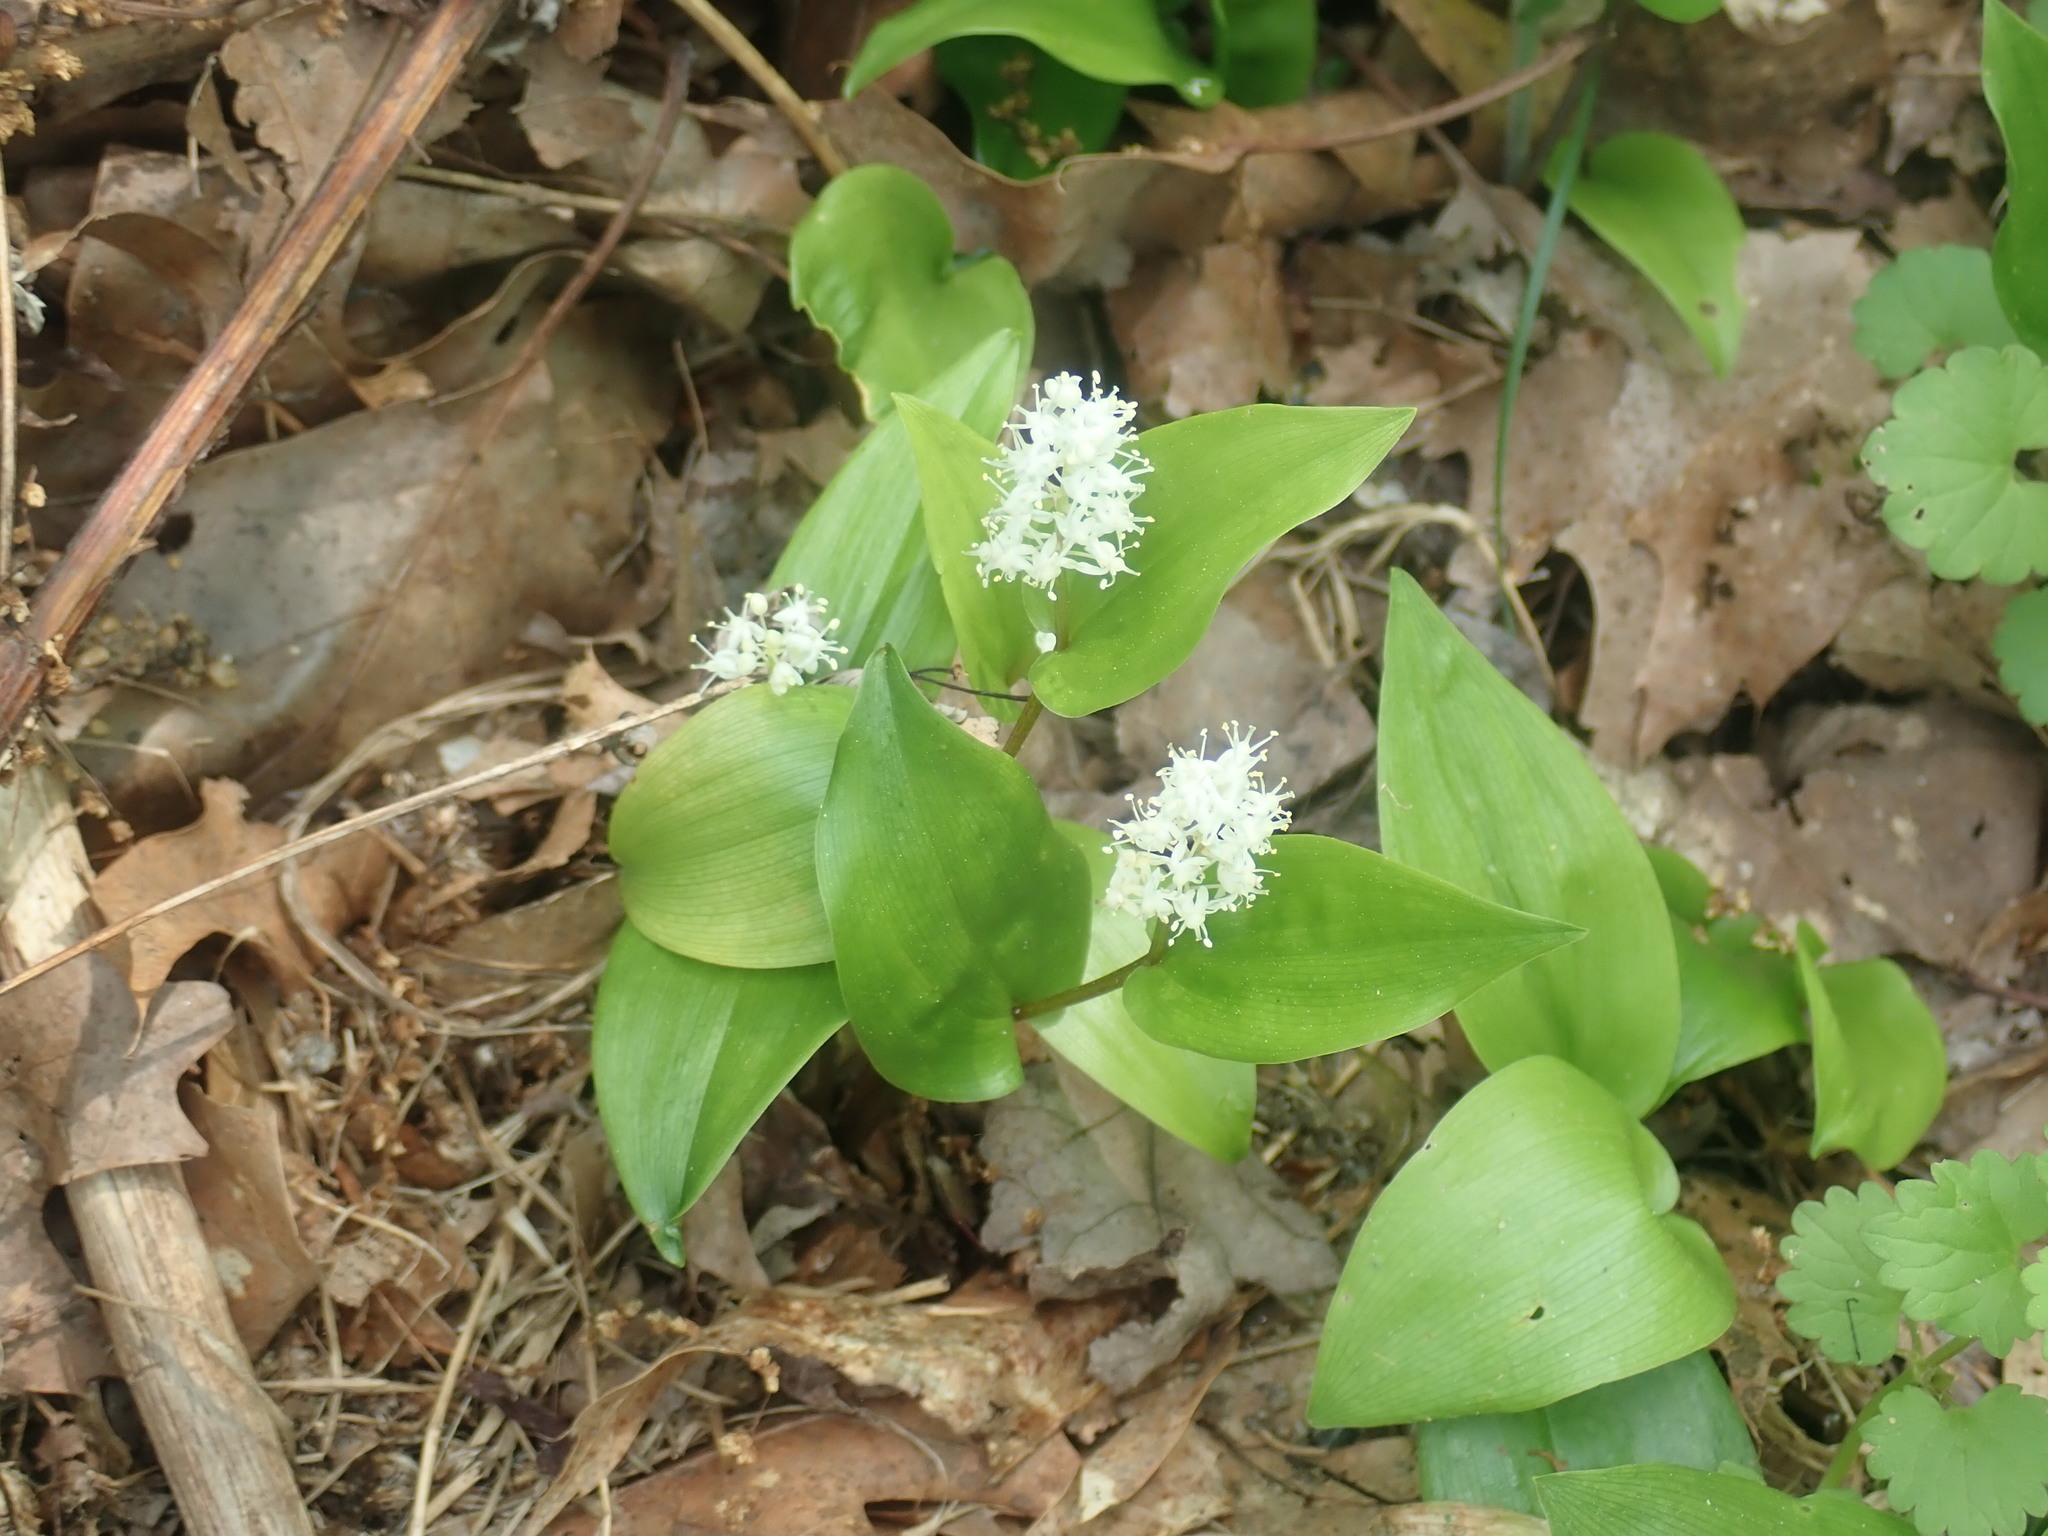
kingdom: Plantae
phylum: Tracheophyta
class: Liliopsida
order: Asparagales
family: Asparagaceae
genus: Maianthemum
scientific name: Maianthemum canadense
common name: False lily-of-the-valley
